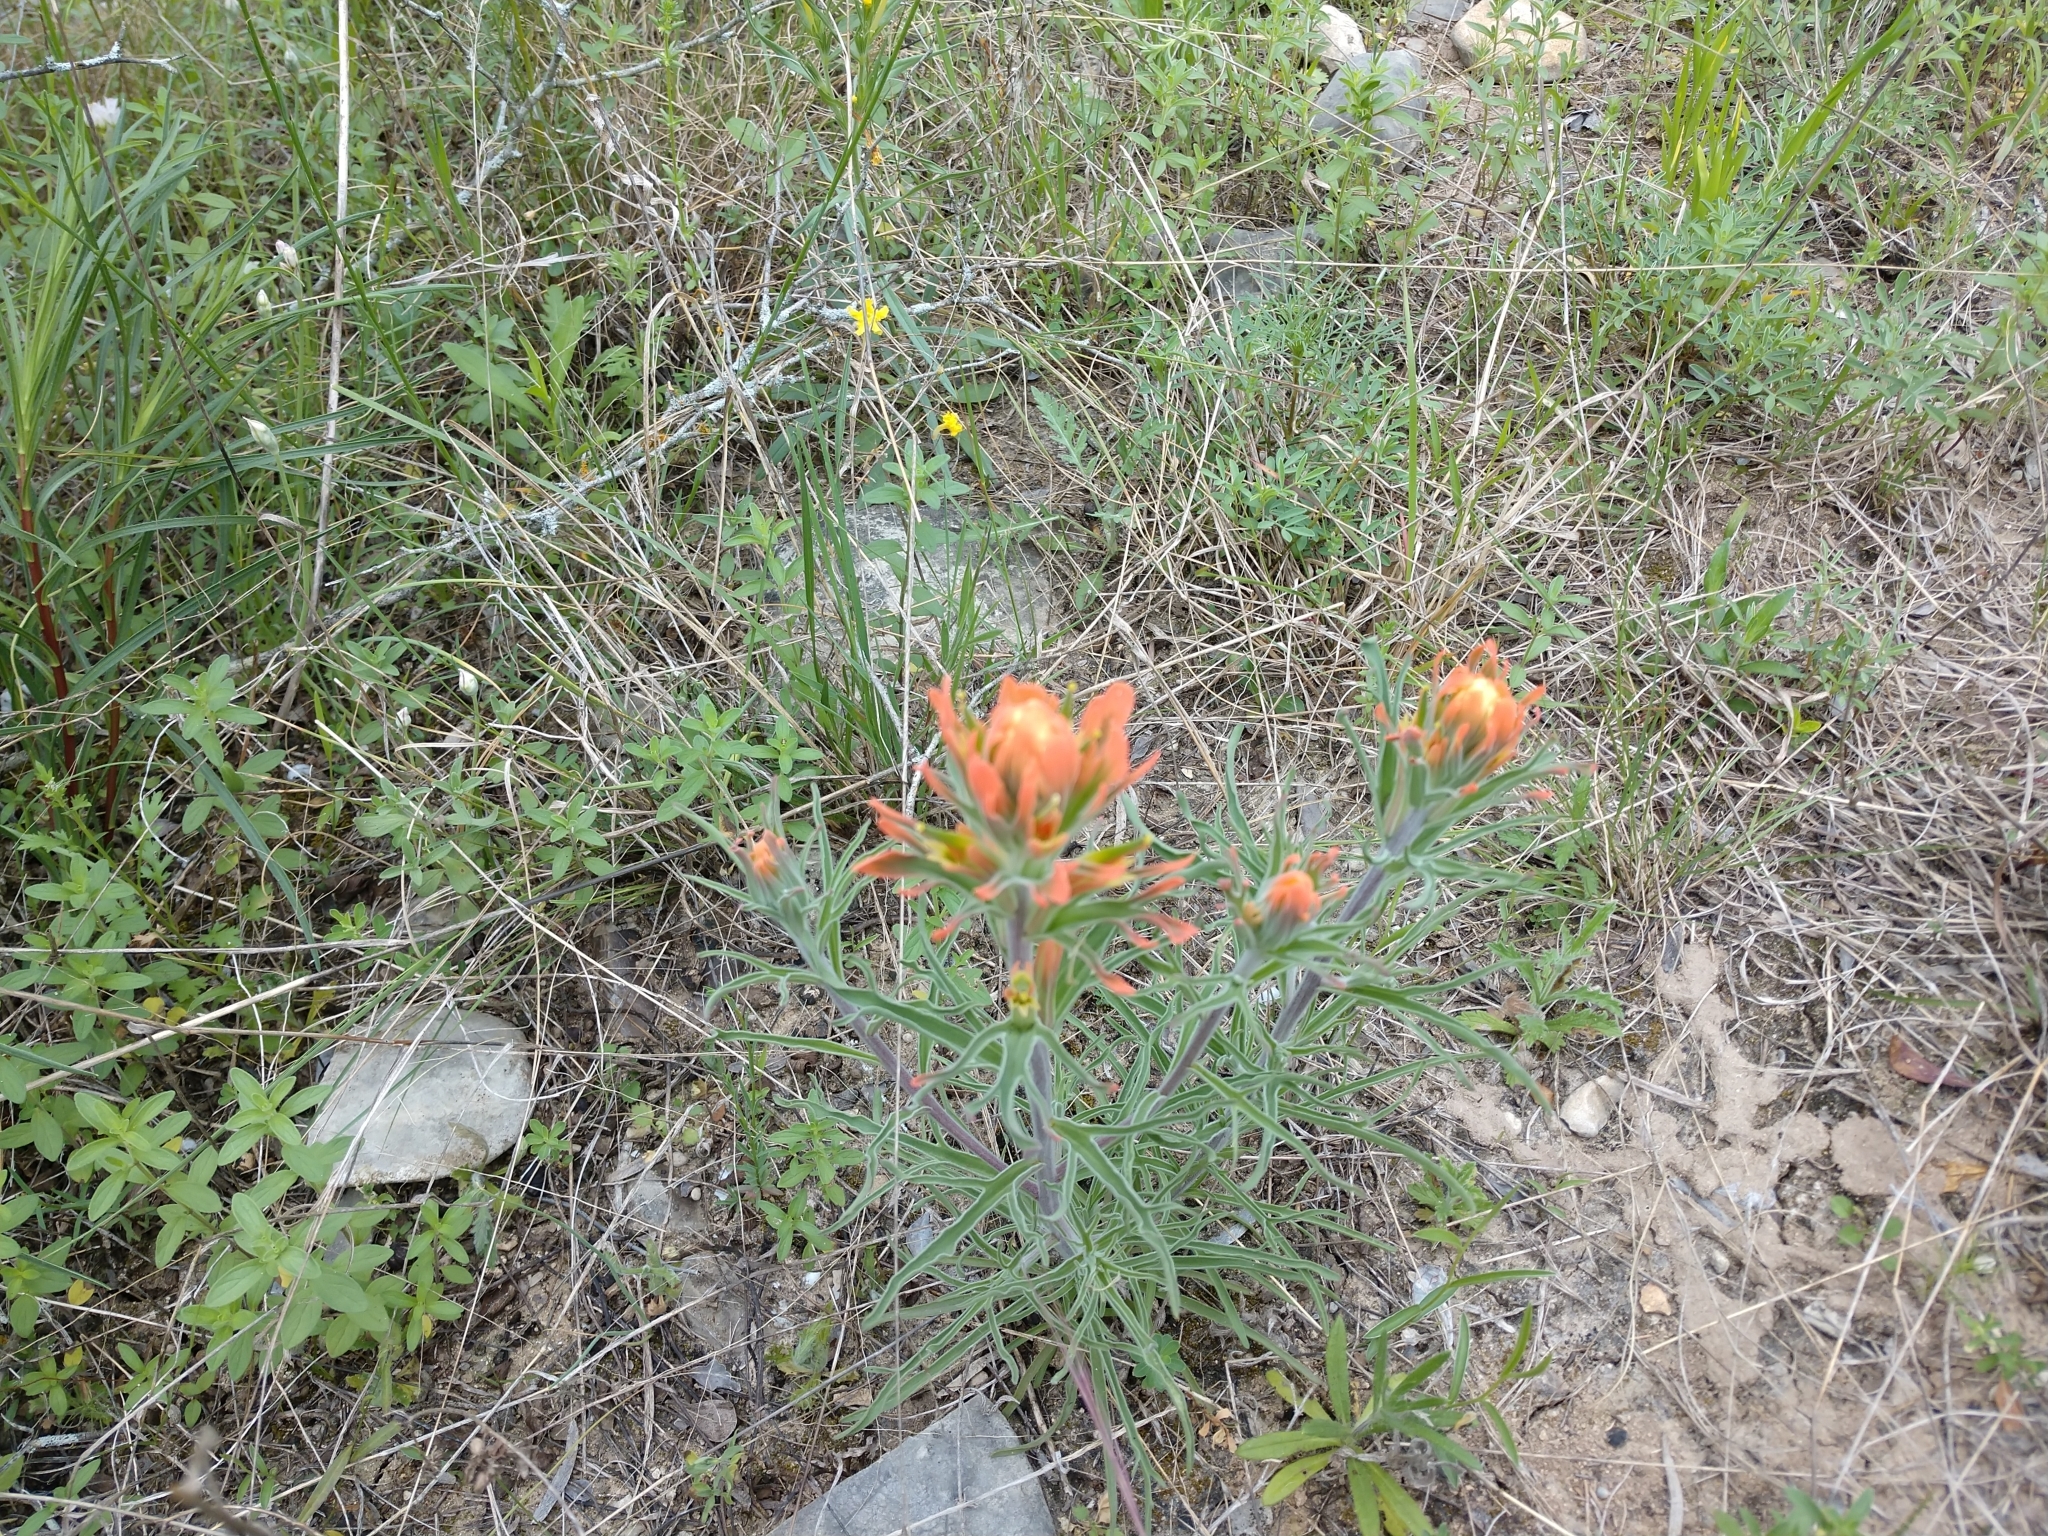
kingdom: Plantae
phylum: Tracheophyta
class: Magnoliopsida
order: Lamiales
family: Orobanchaceae
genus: Castilleja
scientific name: Castilleja lindheimeri
